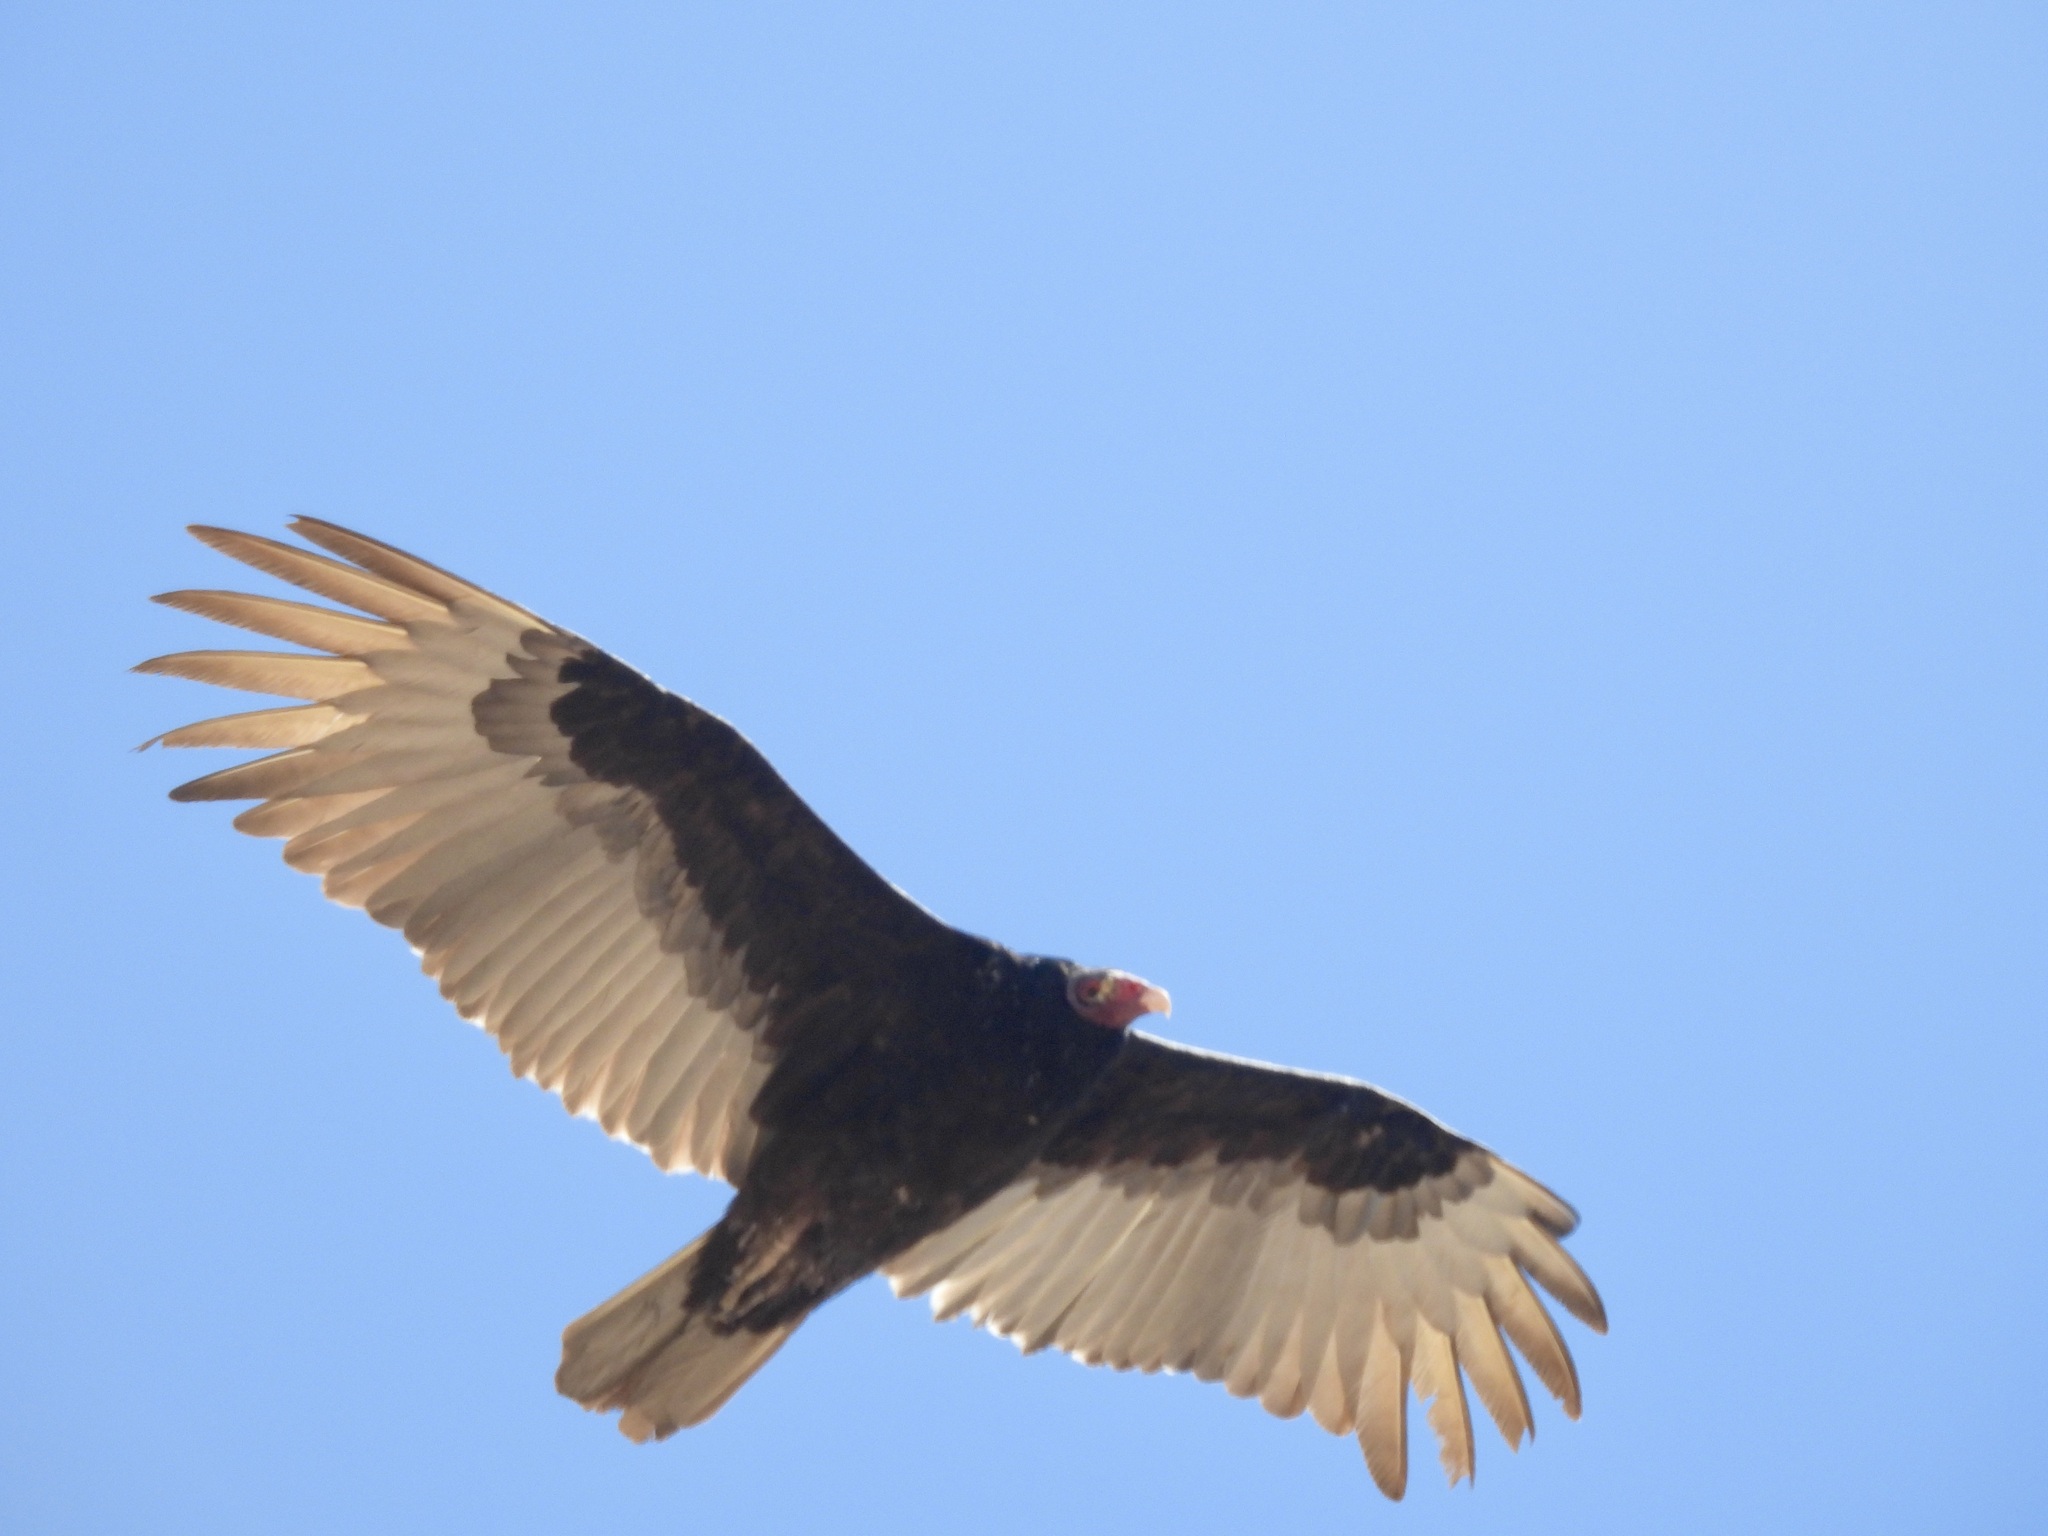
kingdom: Animalia
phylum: Chordata
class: Aves
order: Accipitriformes
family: Cathartidae
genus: Cathartes
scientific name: Cathartes aura
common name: Turkey vulture
